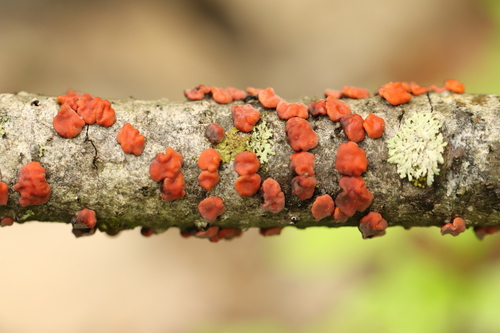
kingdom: Fungi
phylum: Basidiomycota
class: Agaricomycetes
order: Russulales
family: Peniophoraceae
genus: Peniophora
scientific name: Peniophora rufa
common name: Red tree brain fungus
